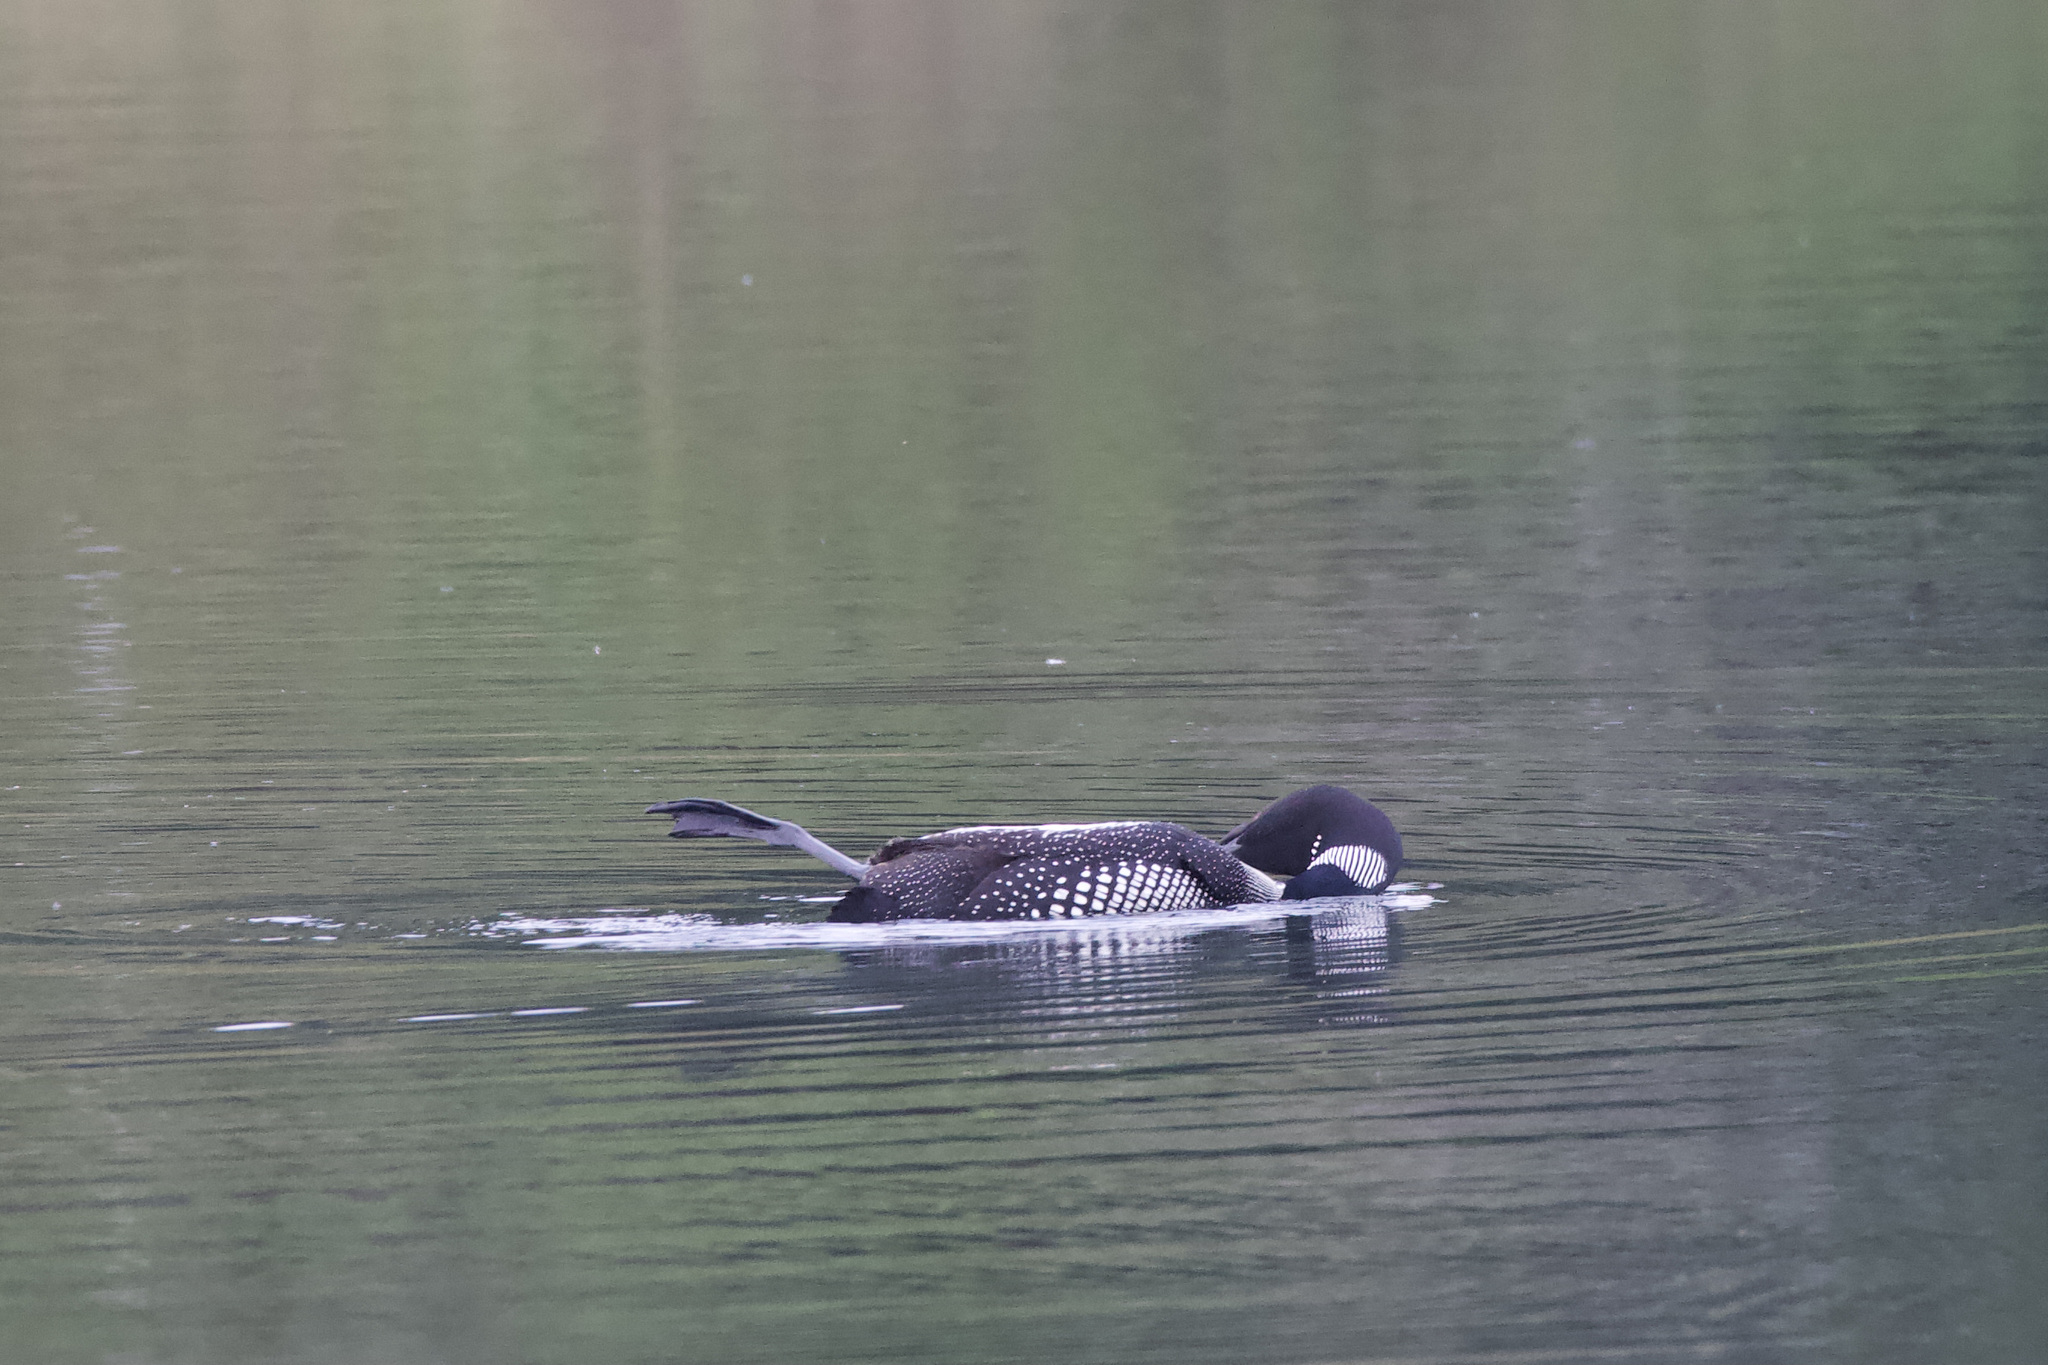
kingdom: Animalia
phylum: Chordata
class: Aves
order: Gaviiformes
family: Gaviidae
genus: Gavia
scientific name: Gavia immer
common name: Common loon
